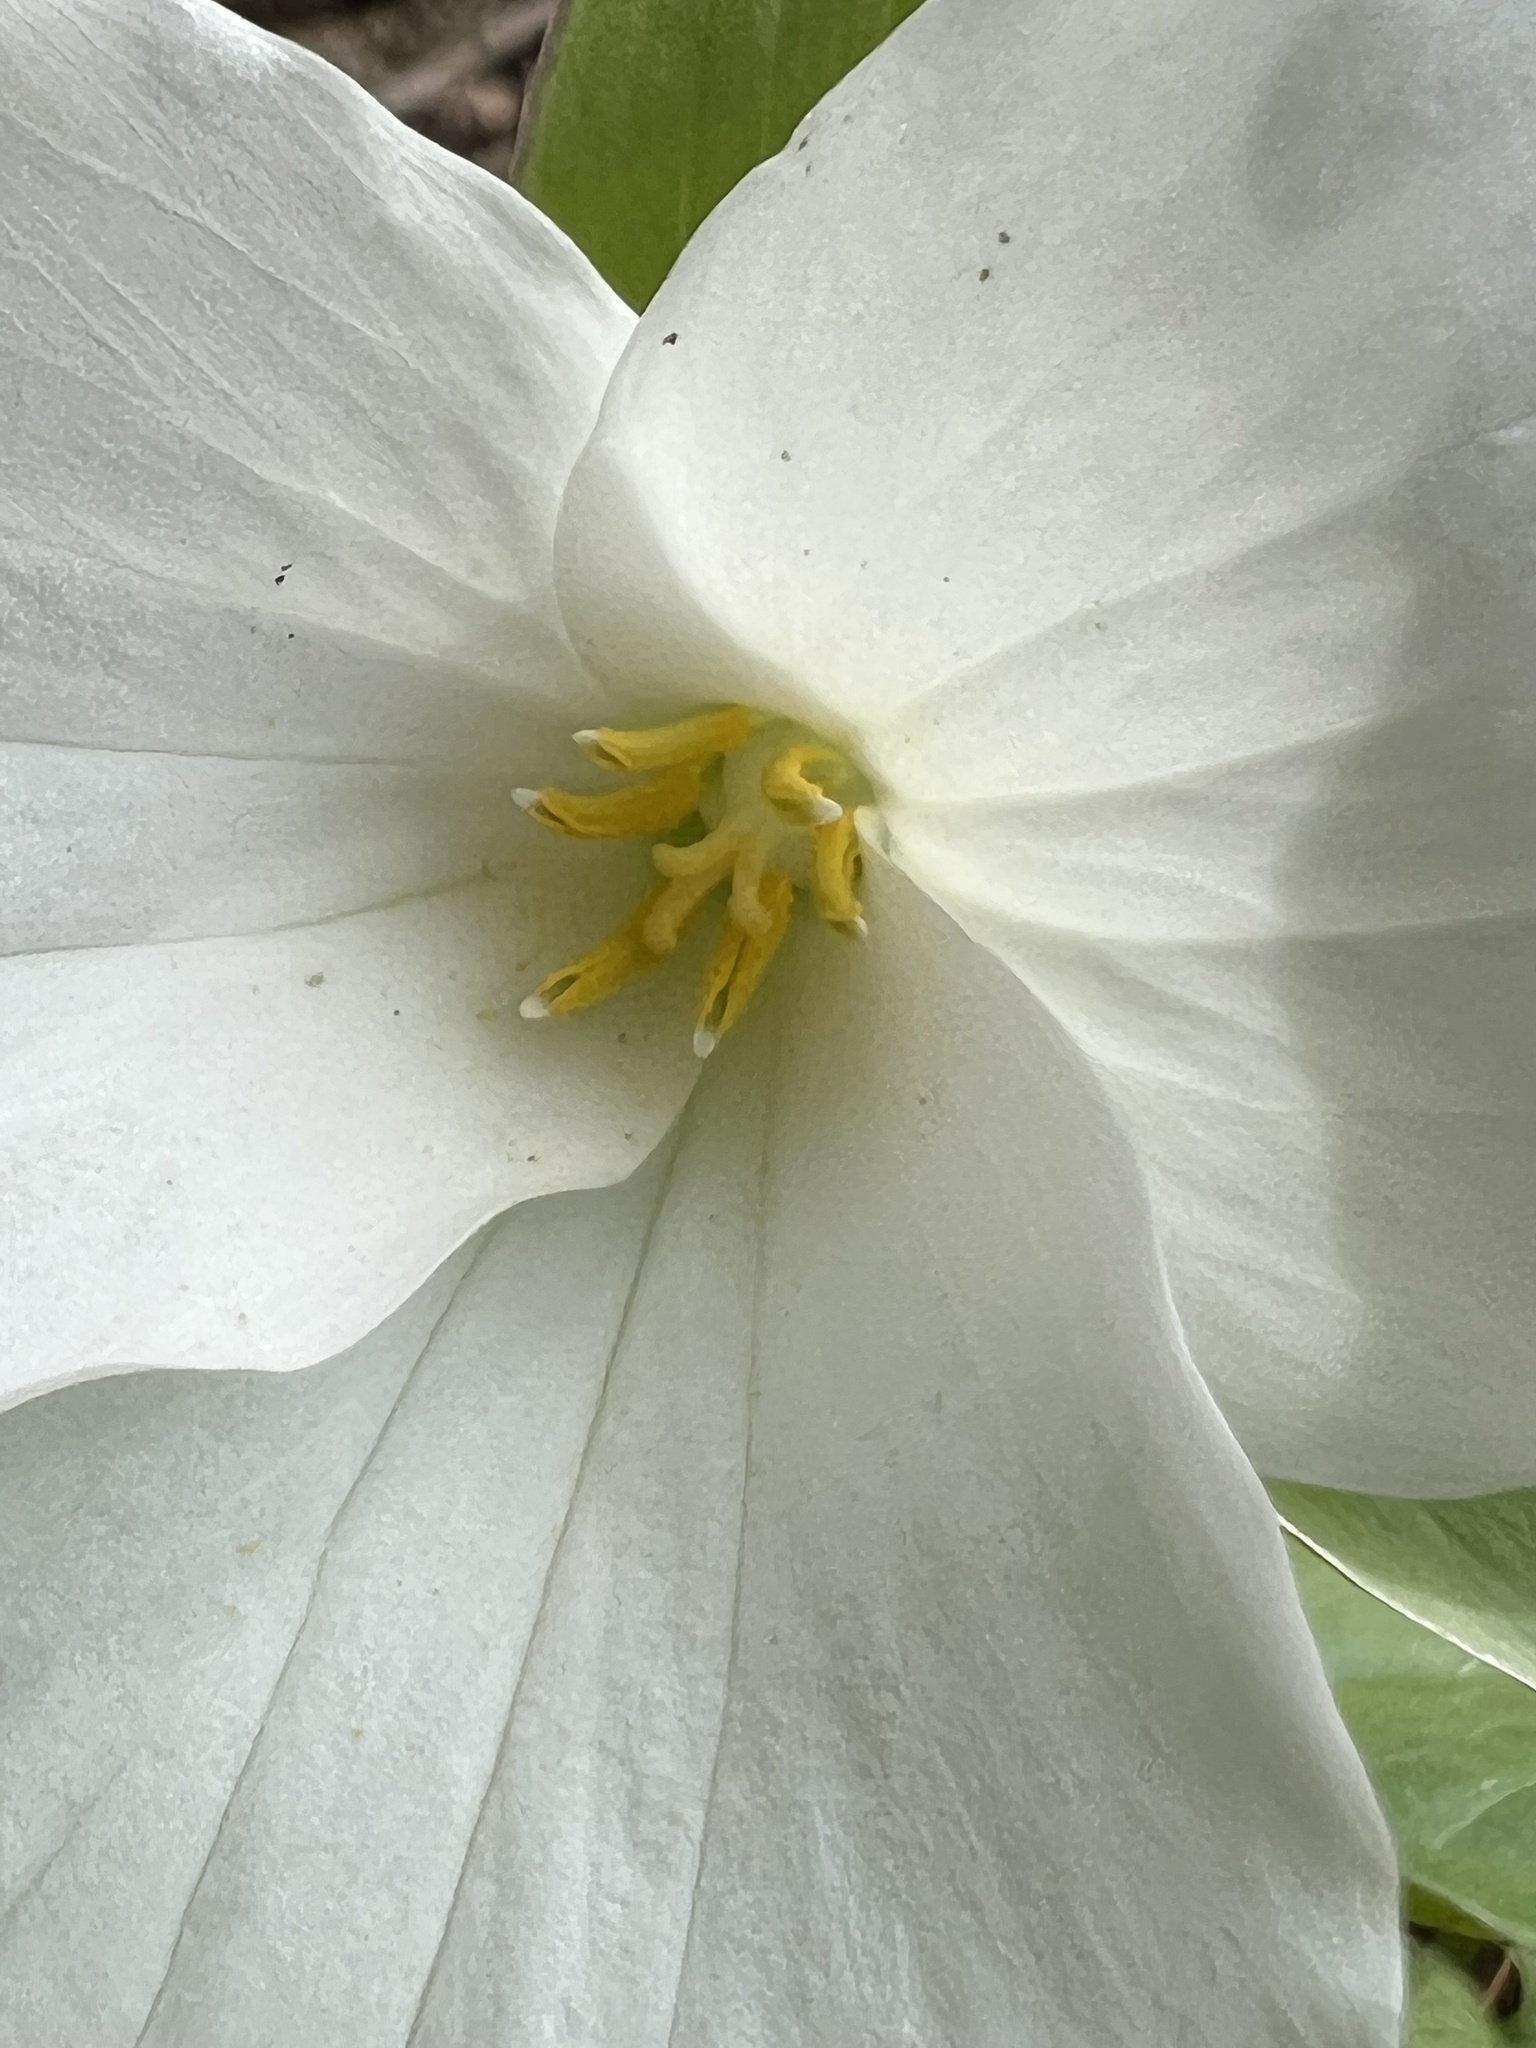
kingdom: Plantae
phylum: Tracheophyta
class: Liliopsida
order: Liliales
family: Melanthiaceae
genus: Trillium
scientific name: Trillium grandiflorum
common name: Great white trillium
